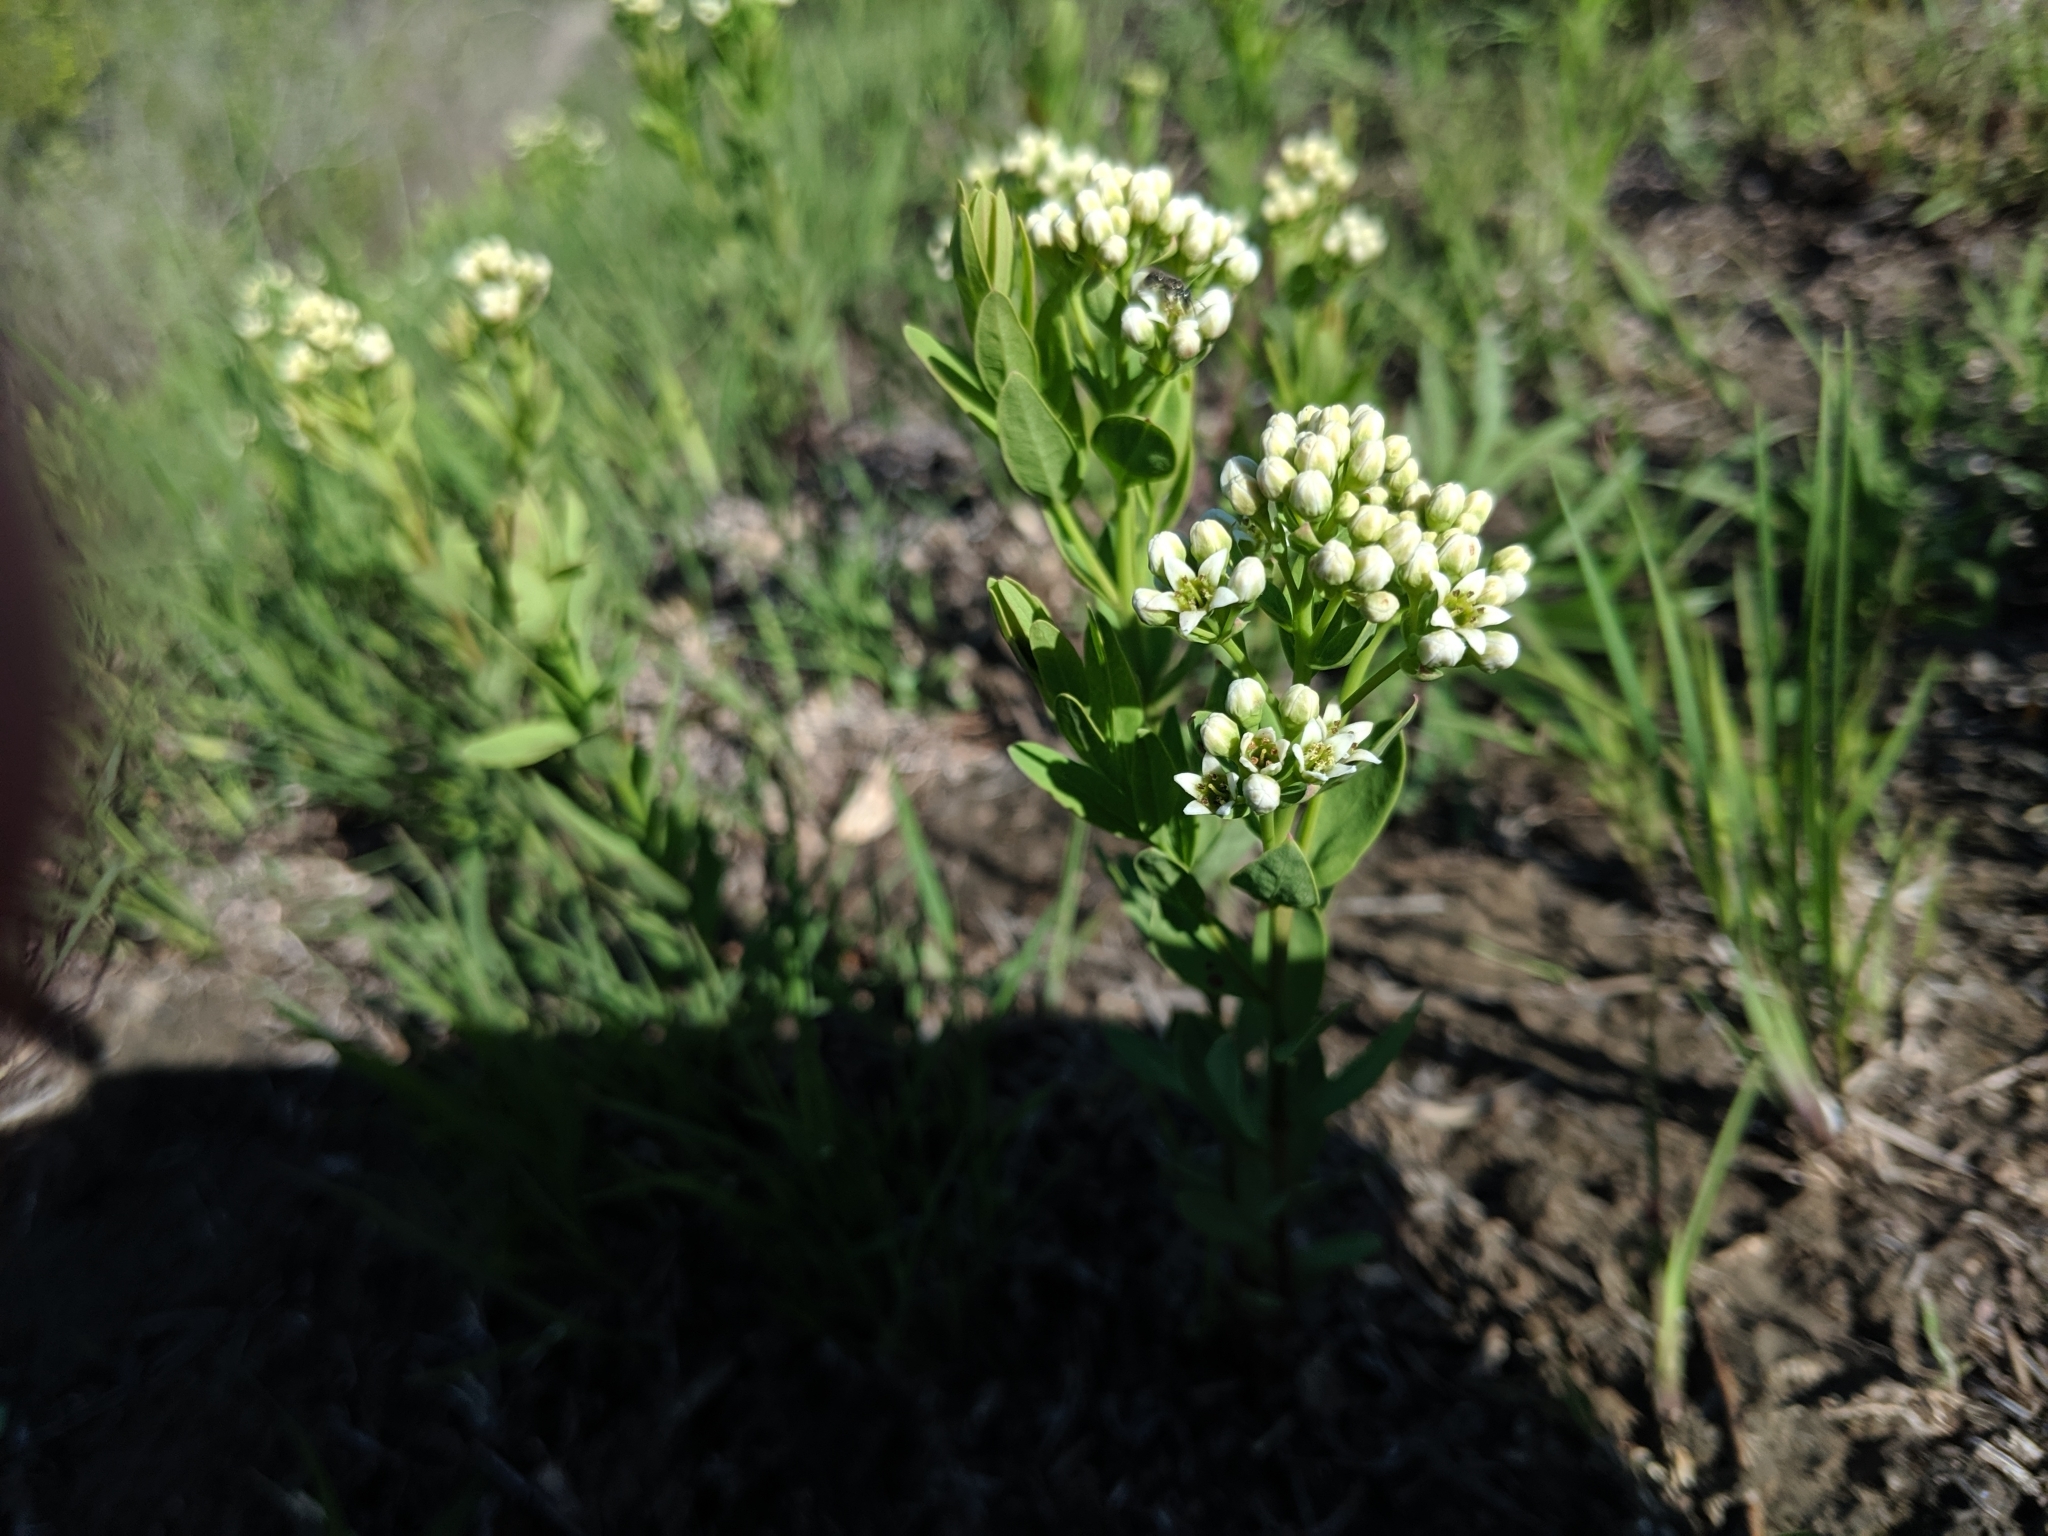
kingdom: Plantae
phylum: Tracheophyta
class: Magnoliopsida
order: Santalales
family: Comandraceae
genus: Comandra
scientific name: Comandra umbellata
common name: Bastard toadflax
